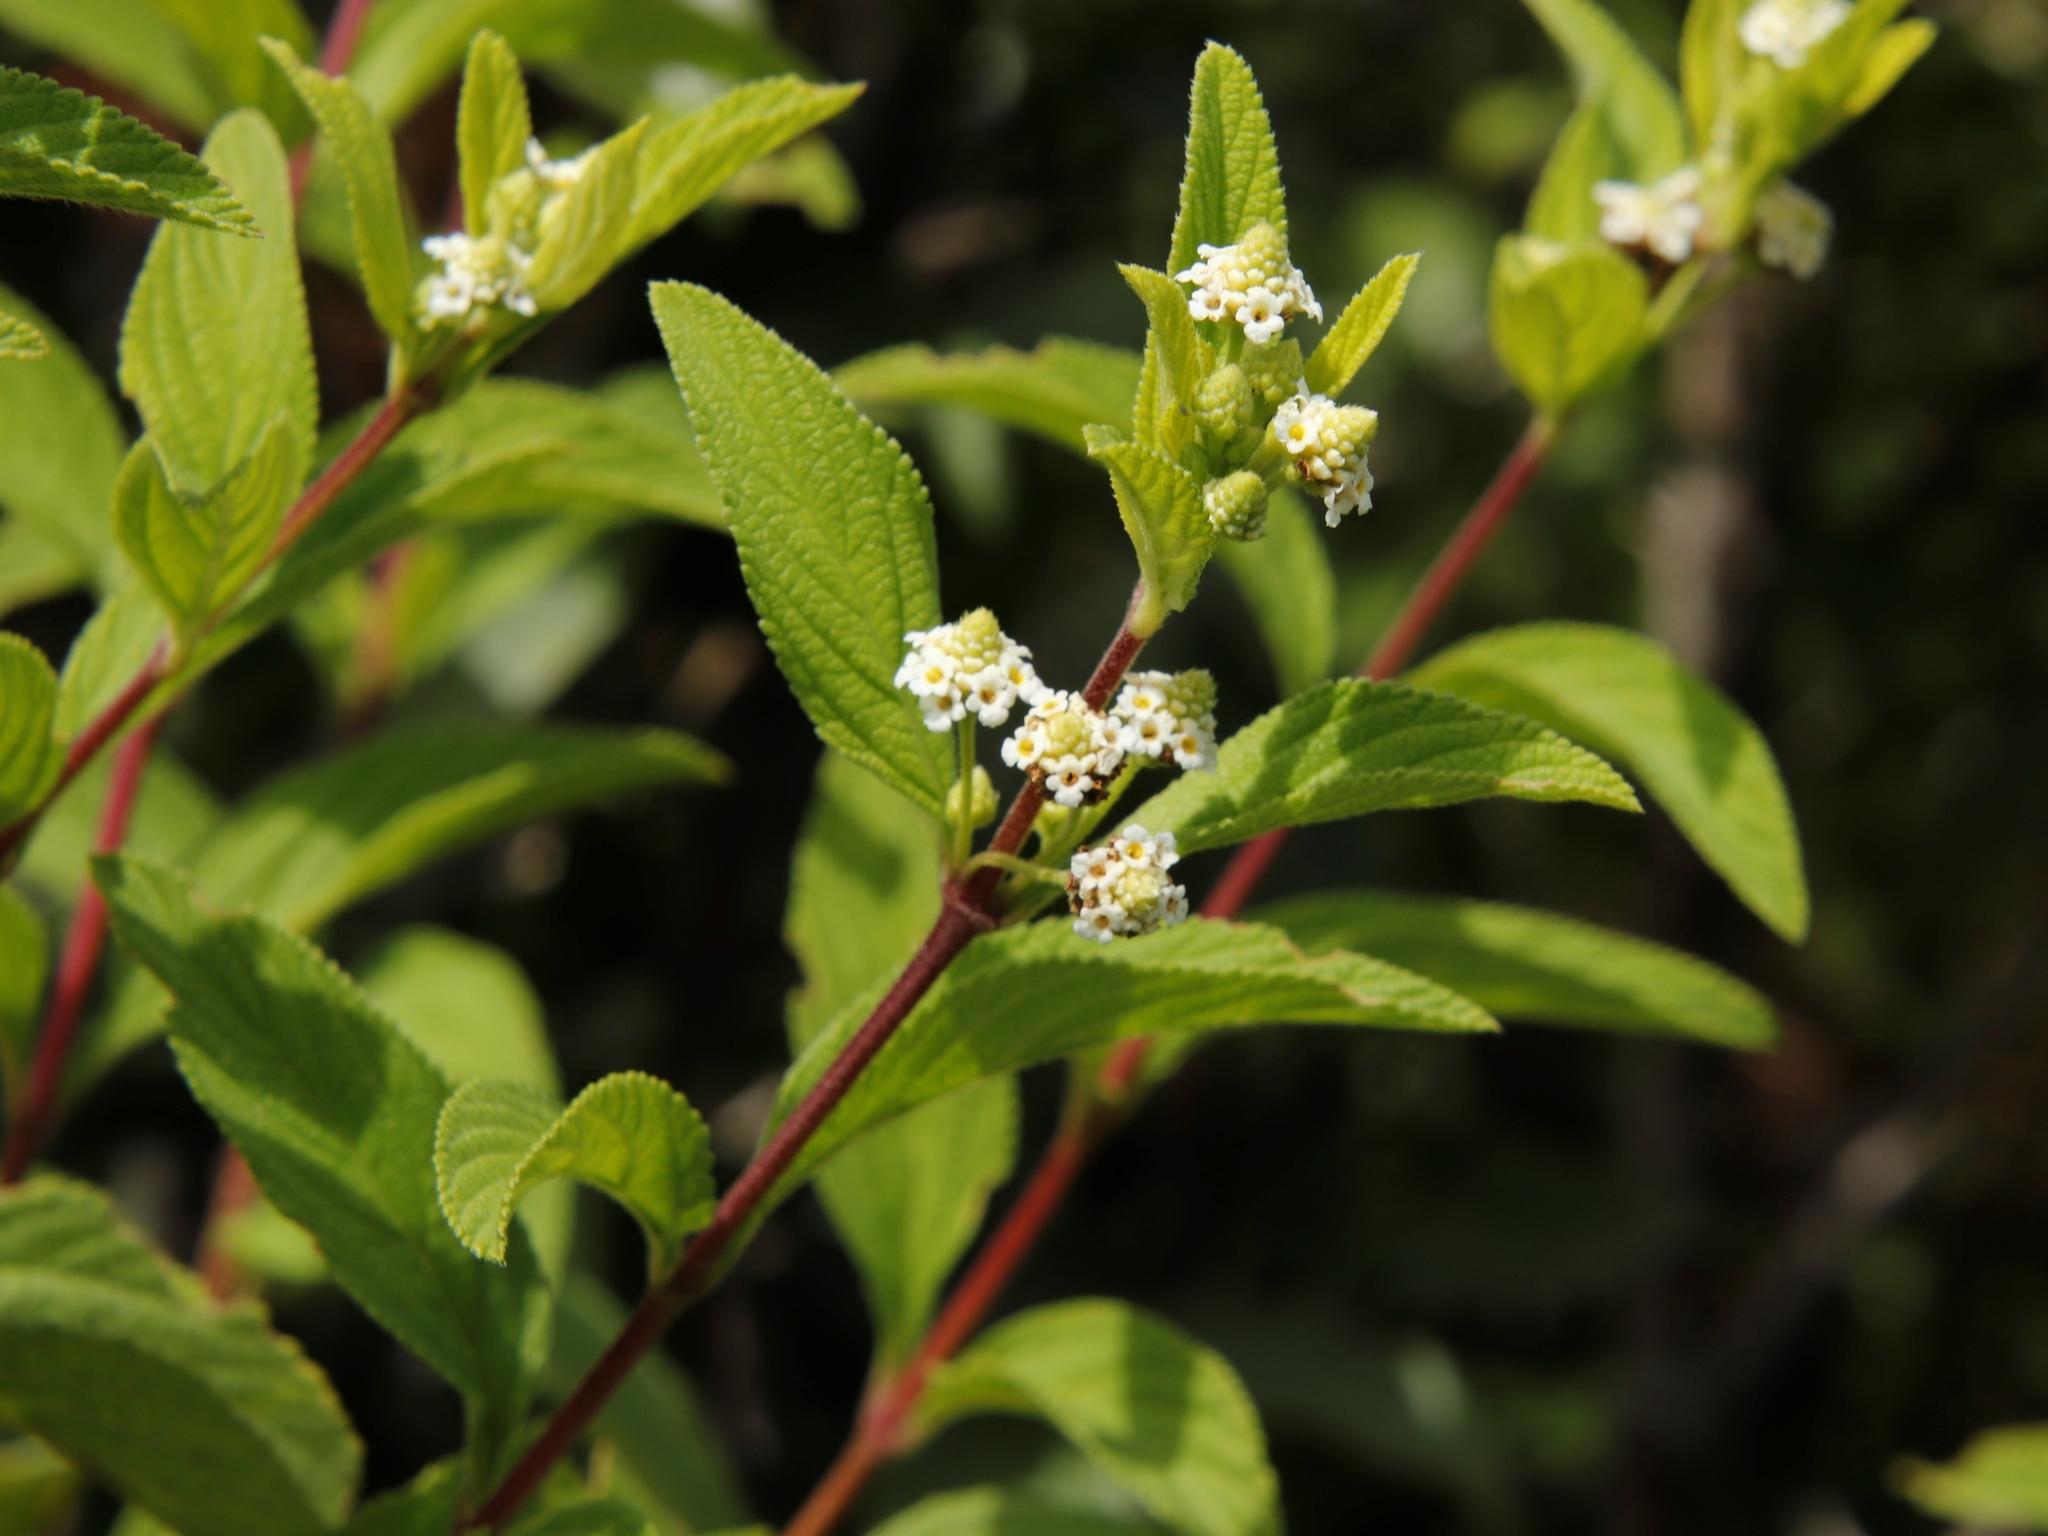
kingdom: Plantae
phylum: Tracheophyta
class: Magnoliopsida
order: Lamiales
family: Verbenaceae
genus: Lippia
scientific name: Lippia javanica
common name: Lemonbush
